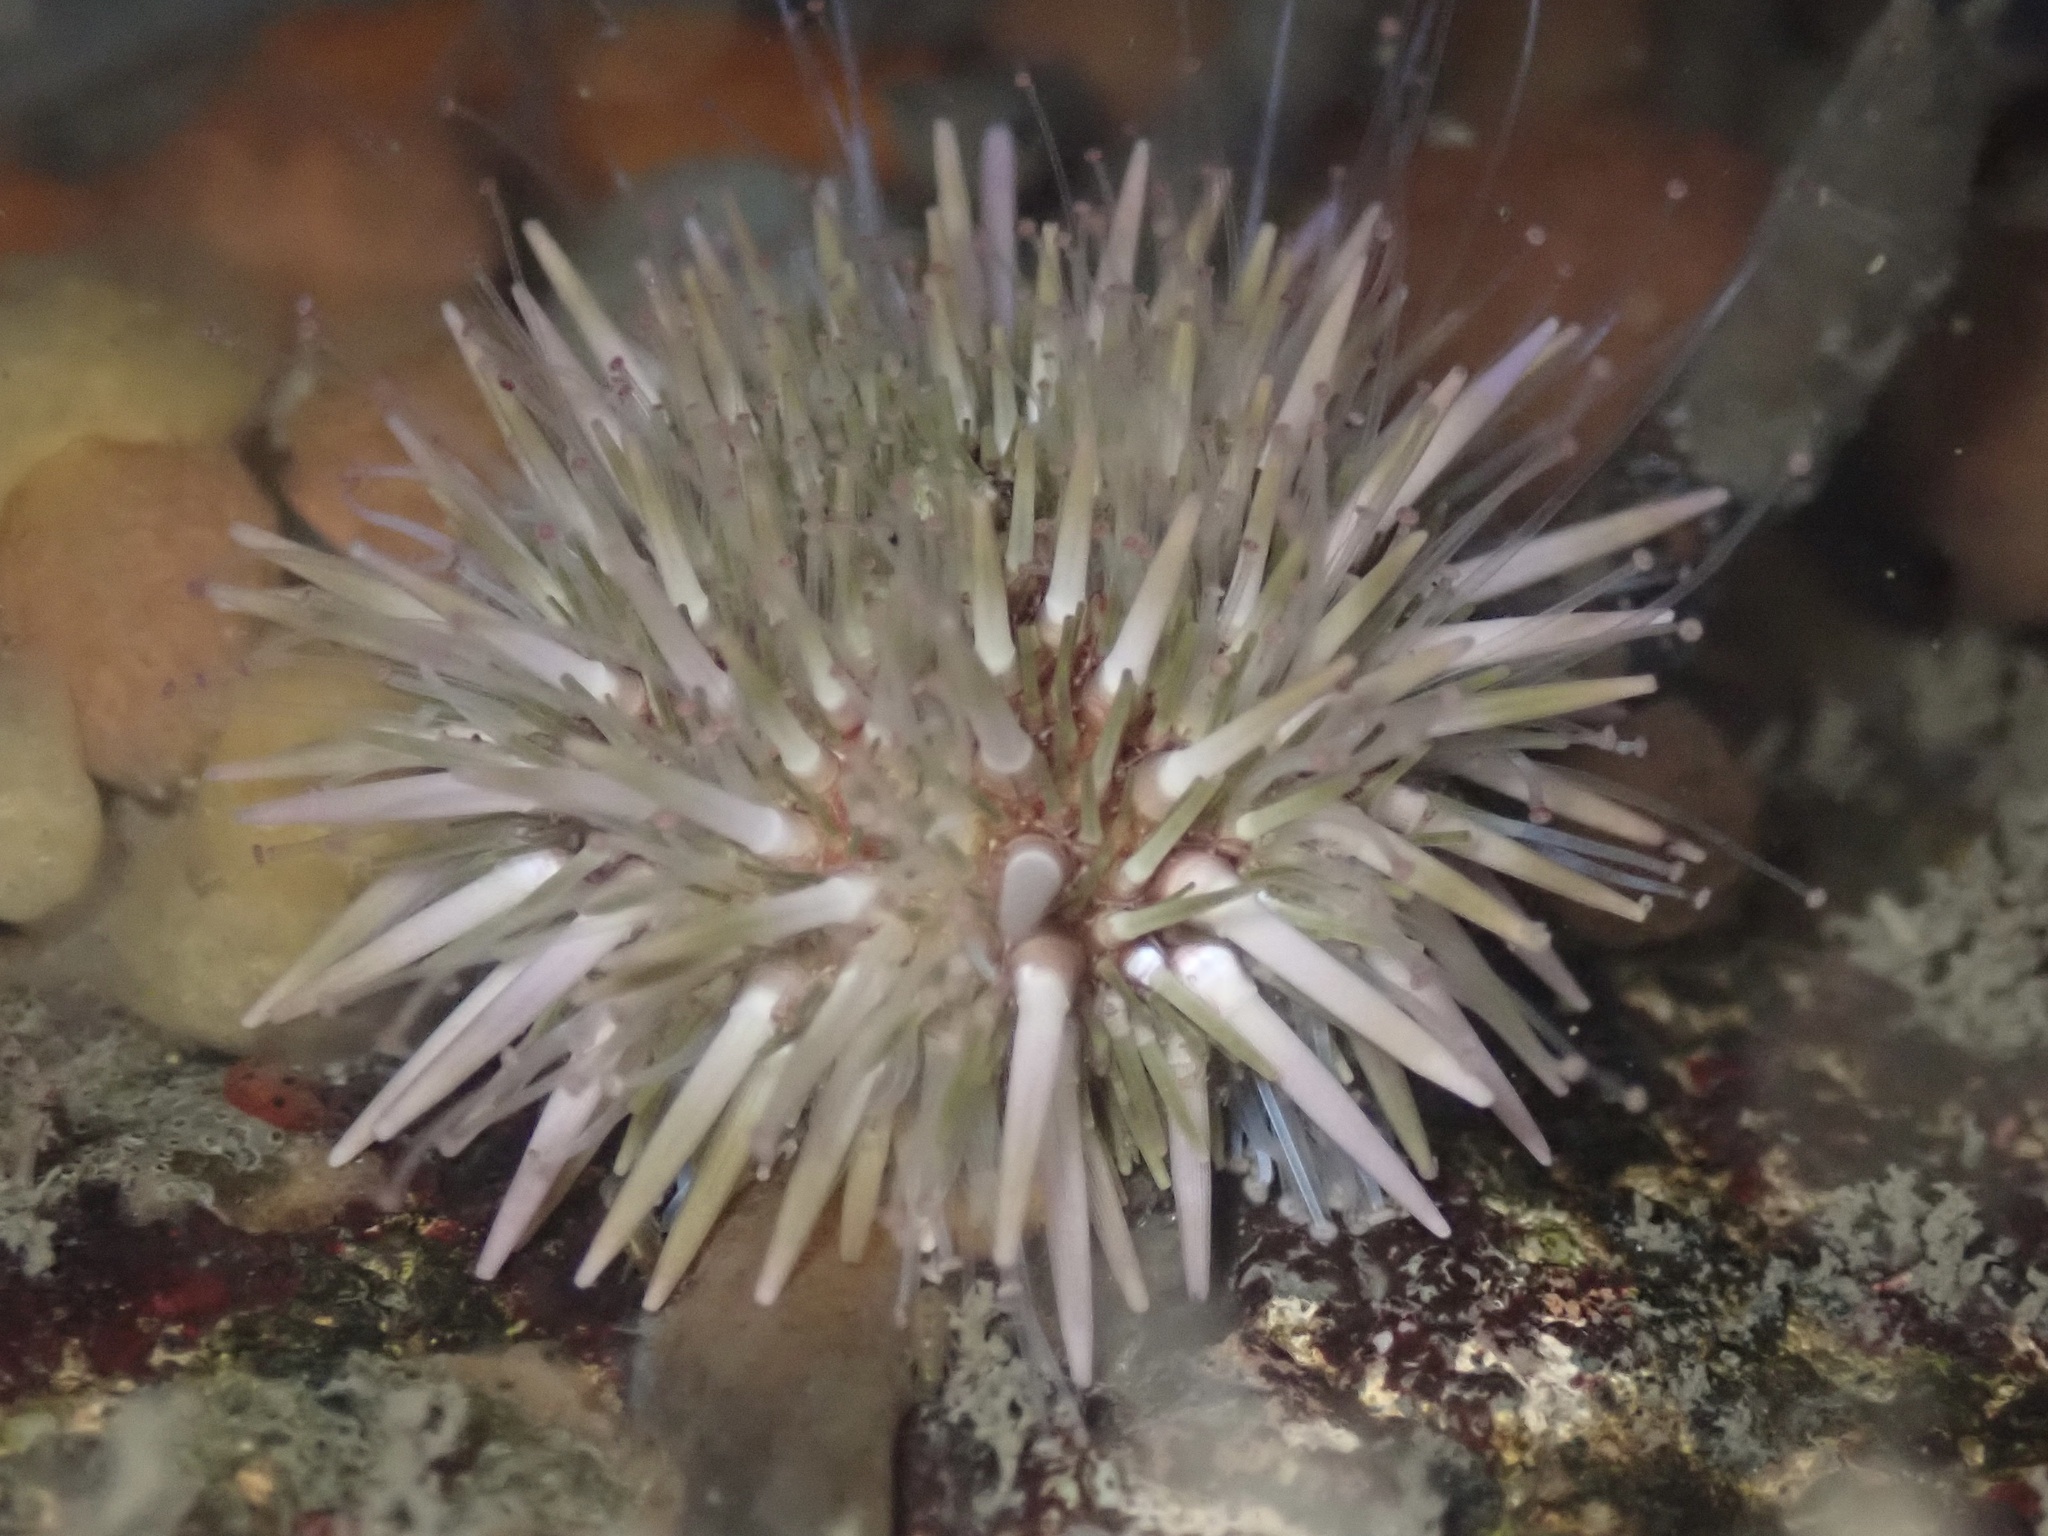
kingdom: Animalia
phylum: Echinodermata
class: Echinoidea
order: Camarodonta
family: Strongylocentrotidae
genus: Strongylocentrotus
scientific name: Strongylocentrotus purpuratus
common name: Purple sea urchin
